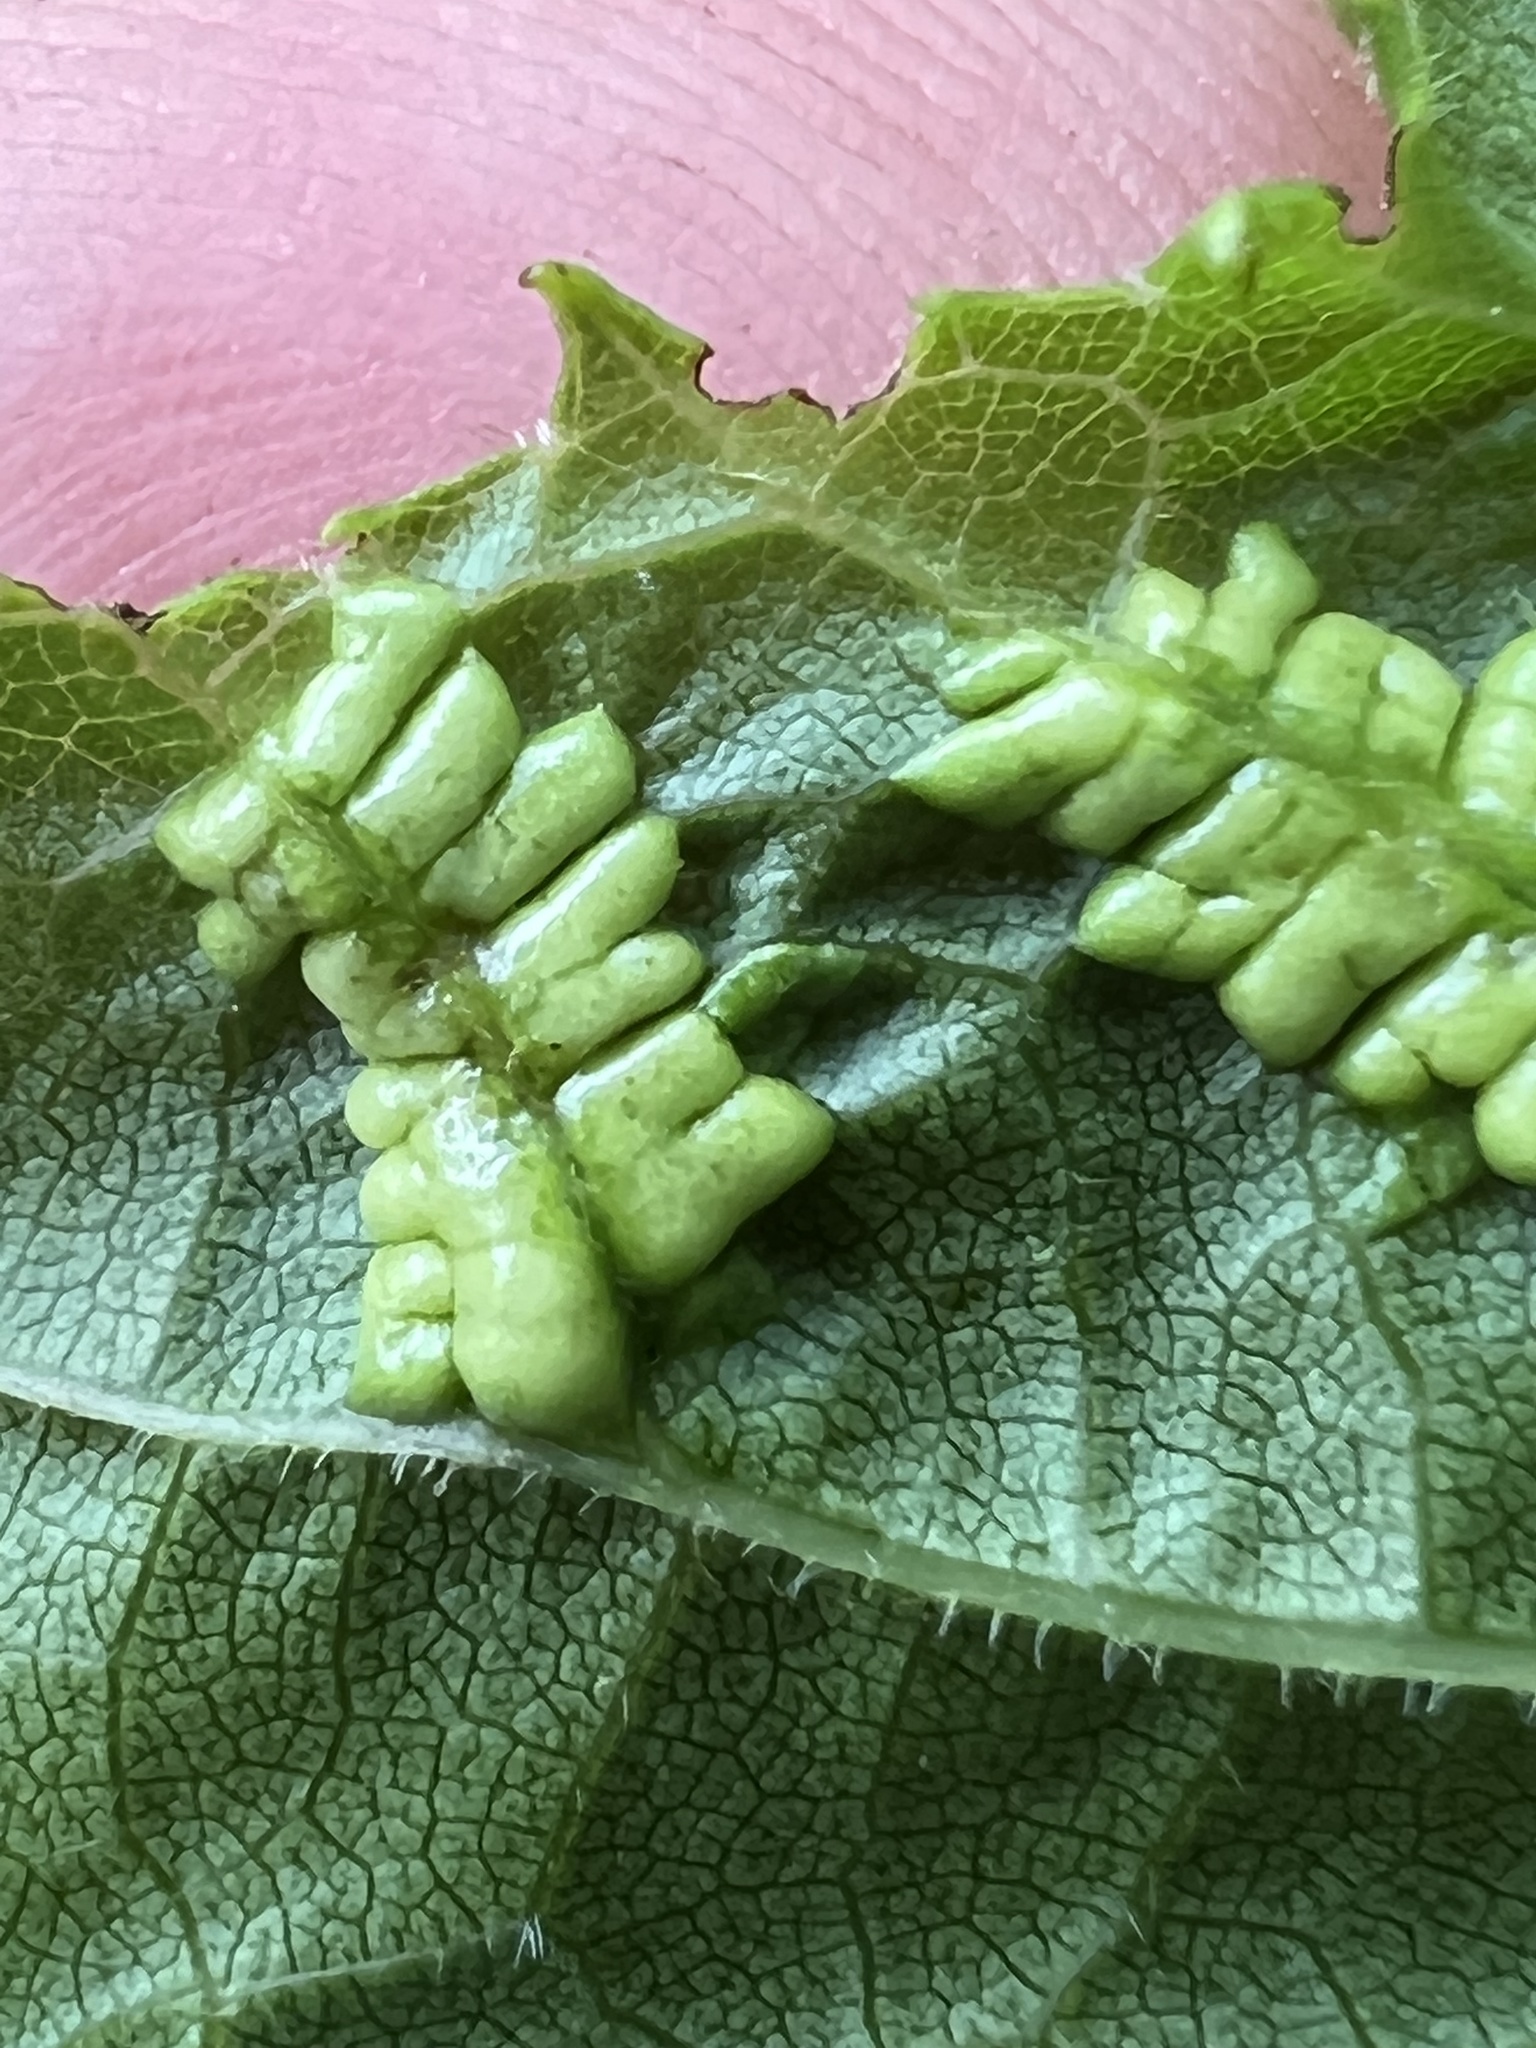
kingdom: Animalia
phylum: Arthropoda
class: Insecta
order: Lepidoptera
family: Heliozelidae
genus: Heliozela
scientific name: Heliozela aesella
